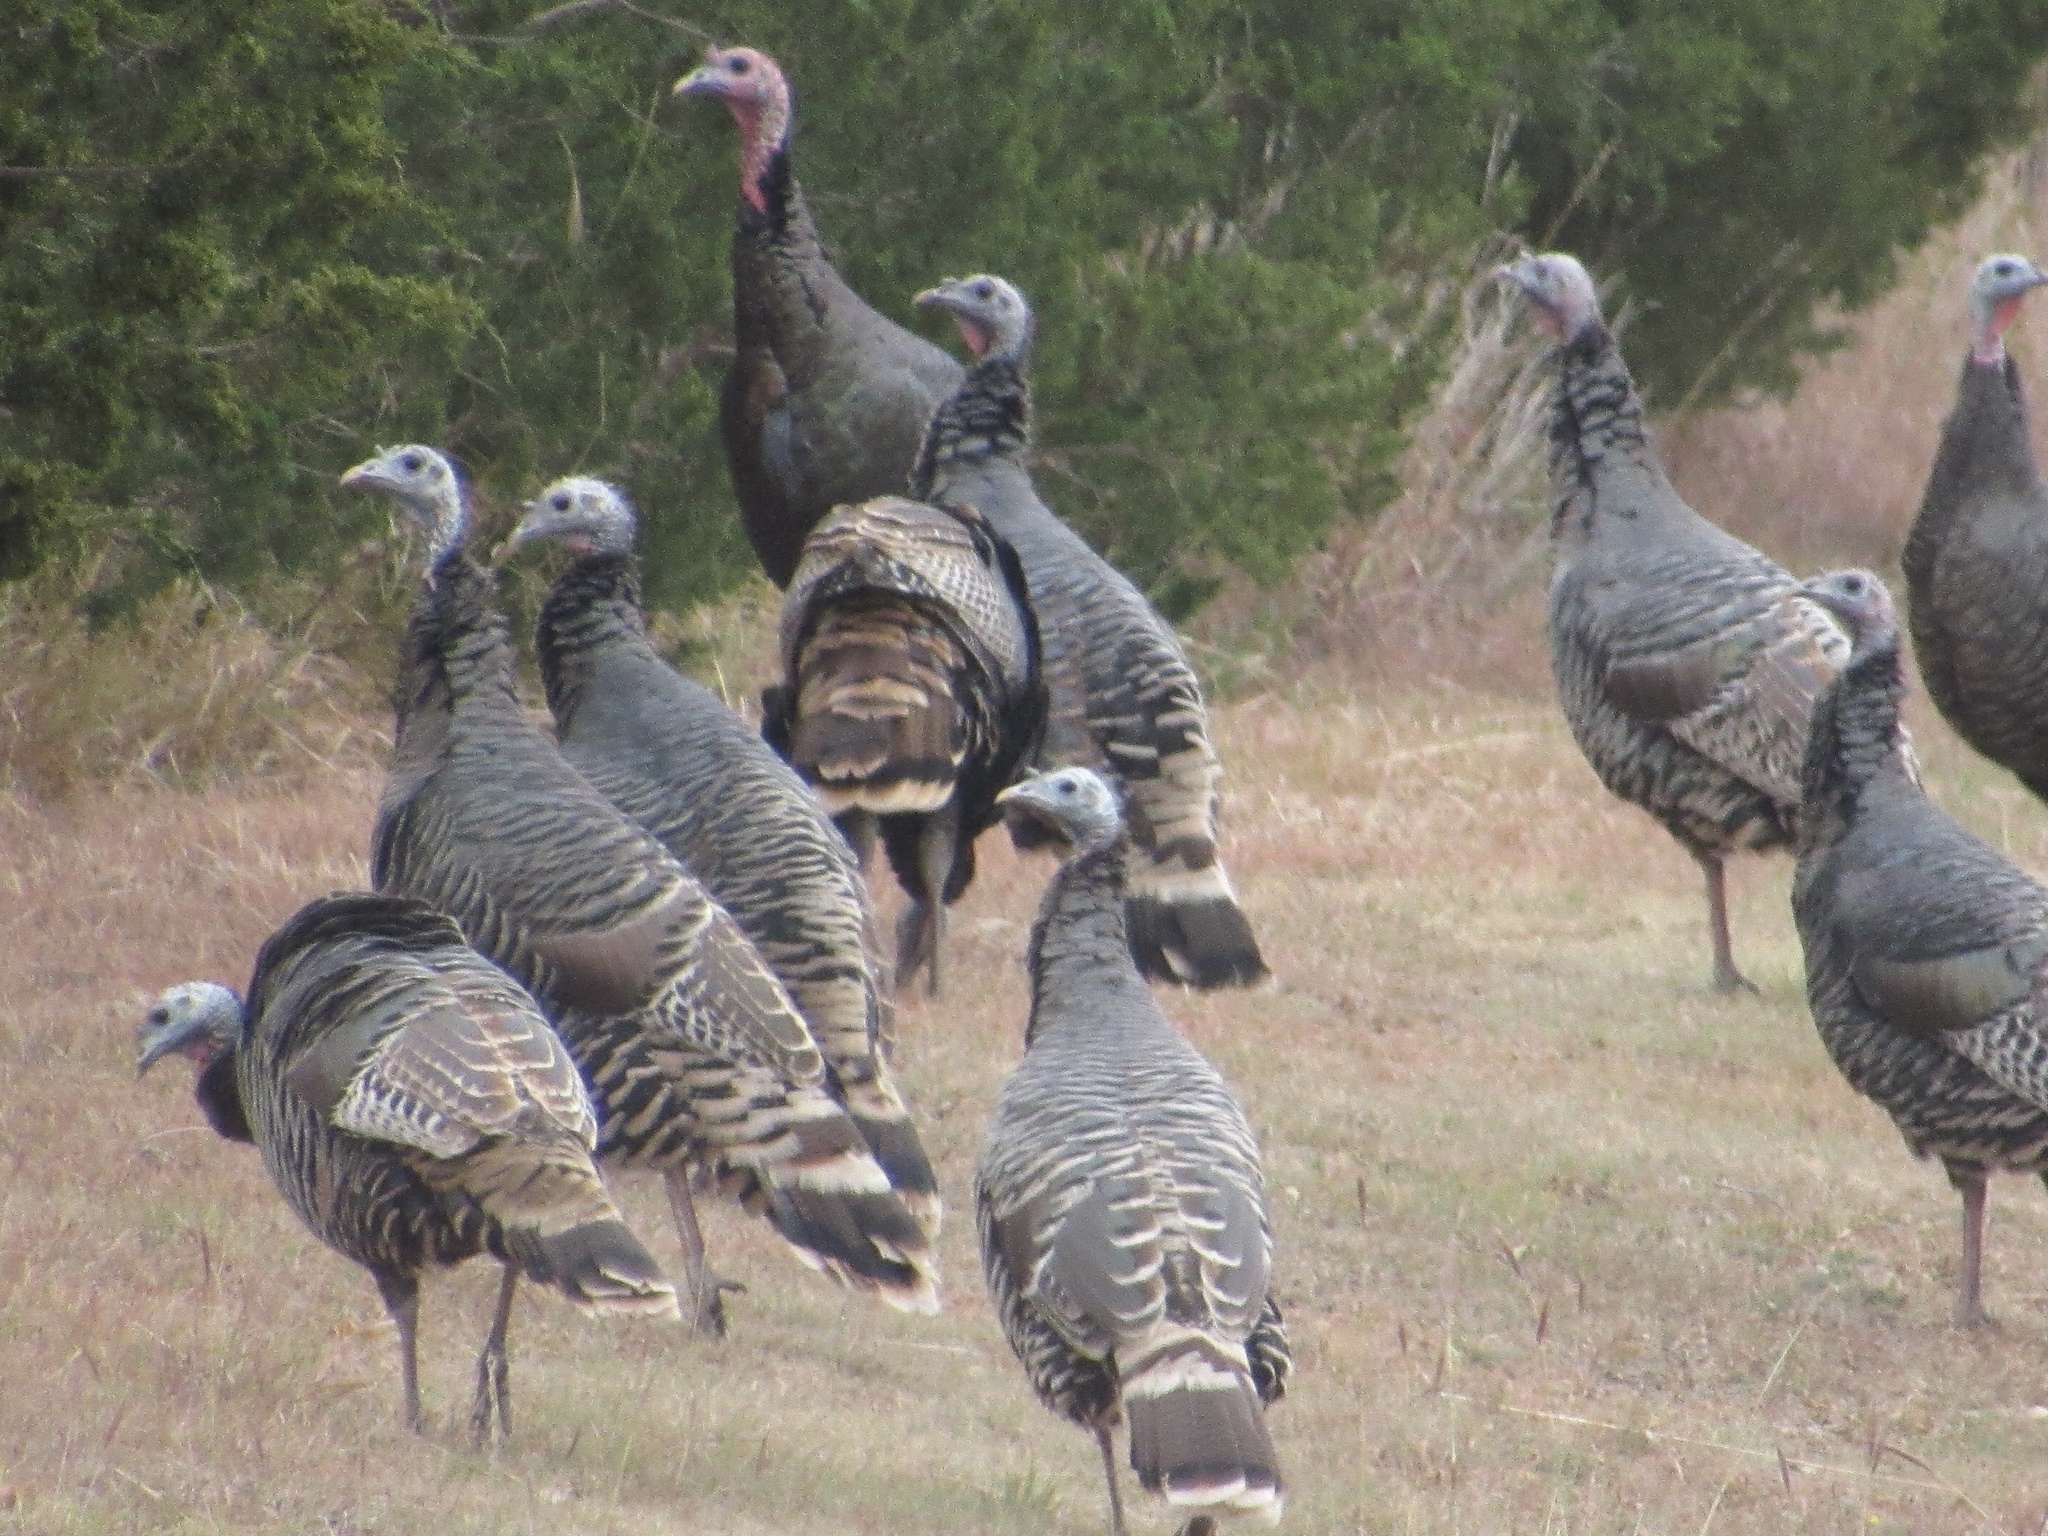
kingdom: Animalia
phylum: Chordata
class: Aves
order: Galliformes
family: Phasianidae
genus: Meleagris
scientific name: Meleagris gallopavo
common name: Wild turkey
